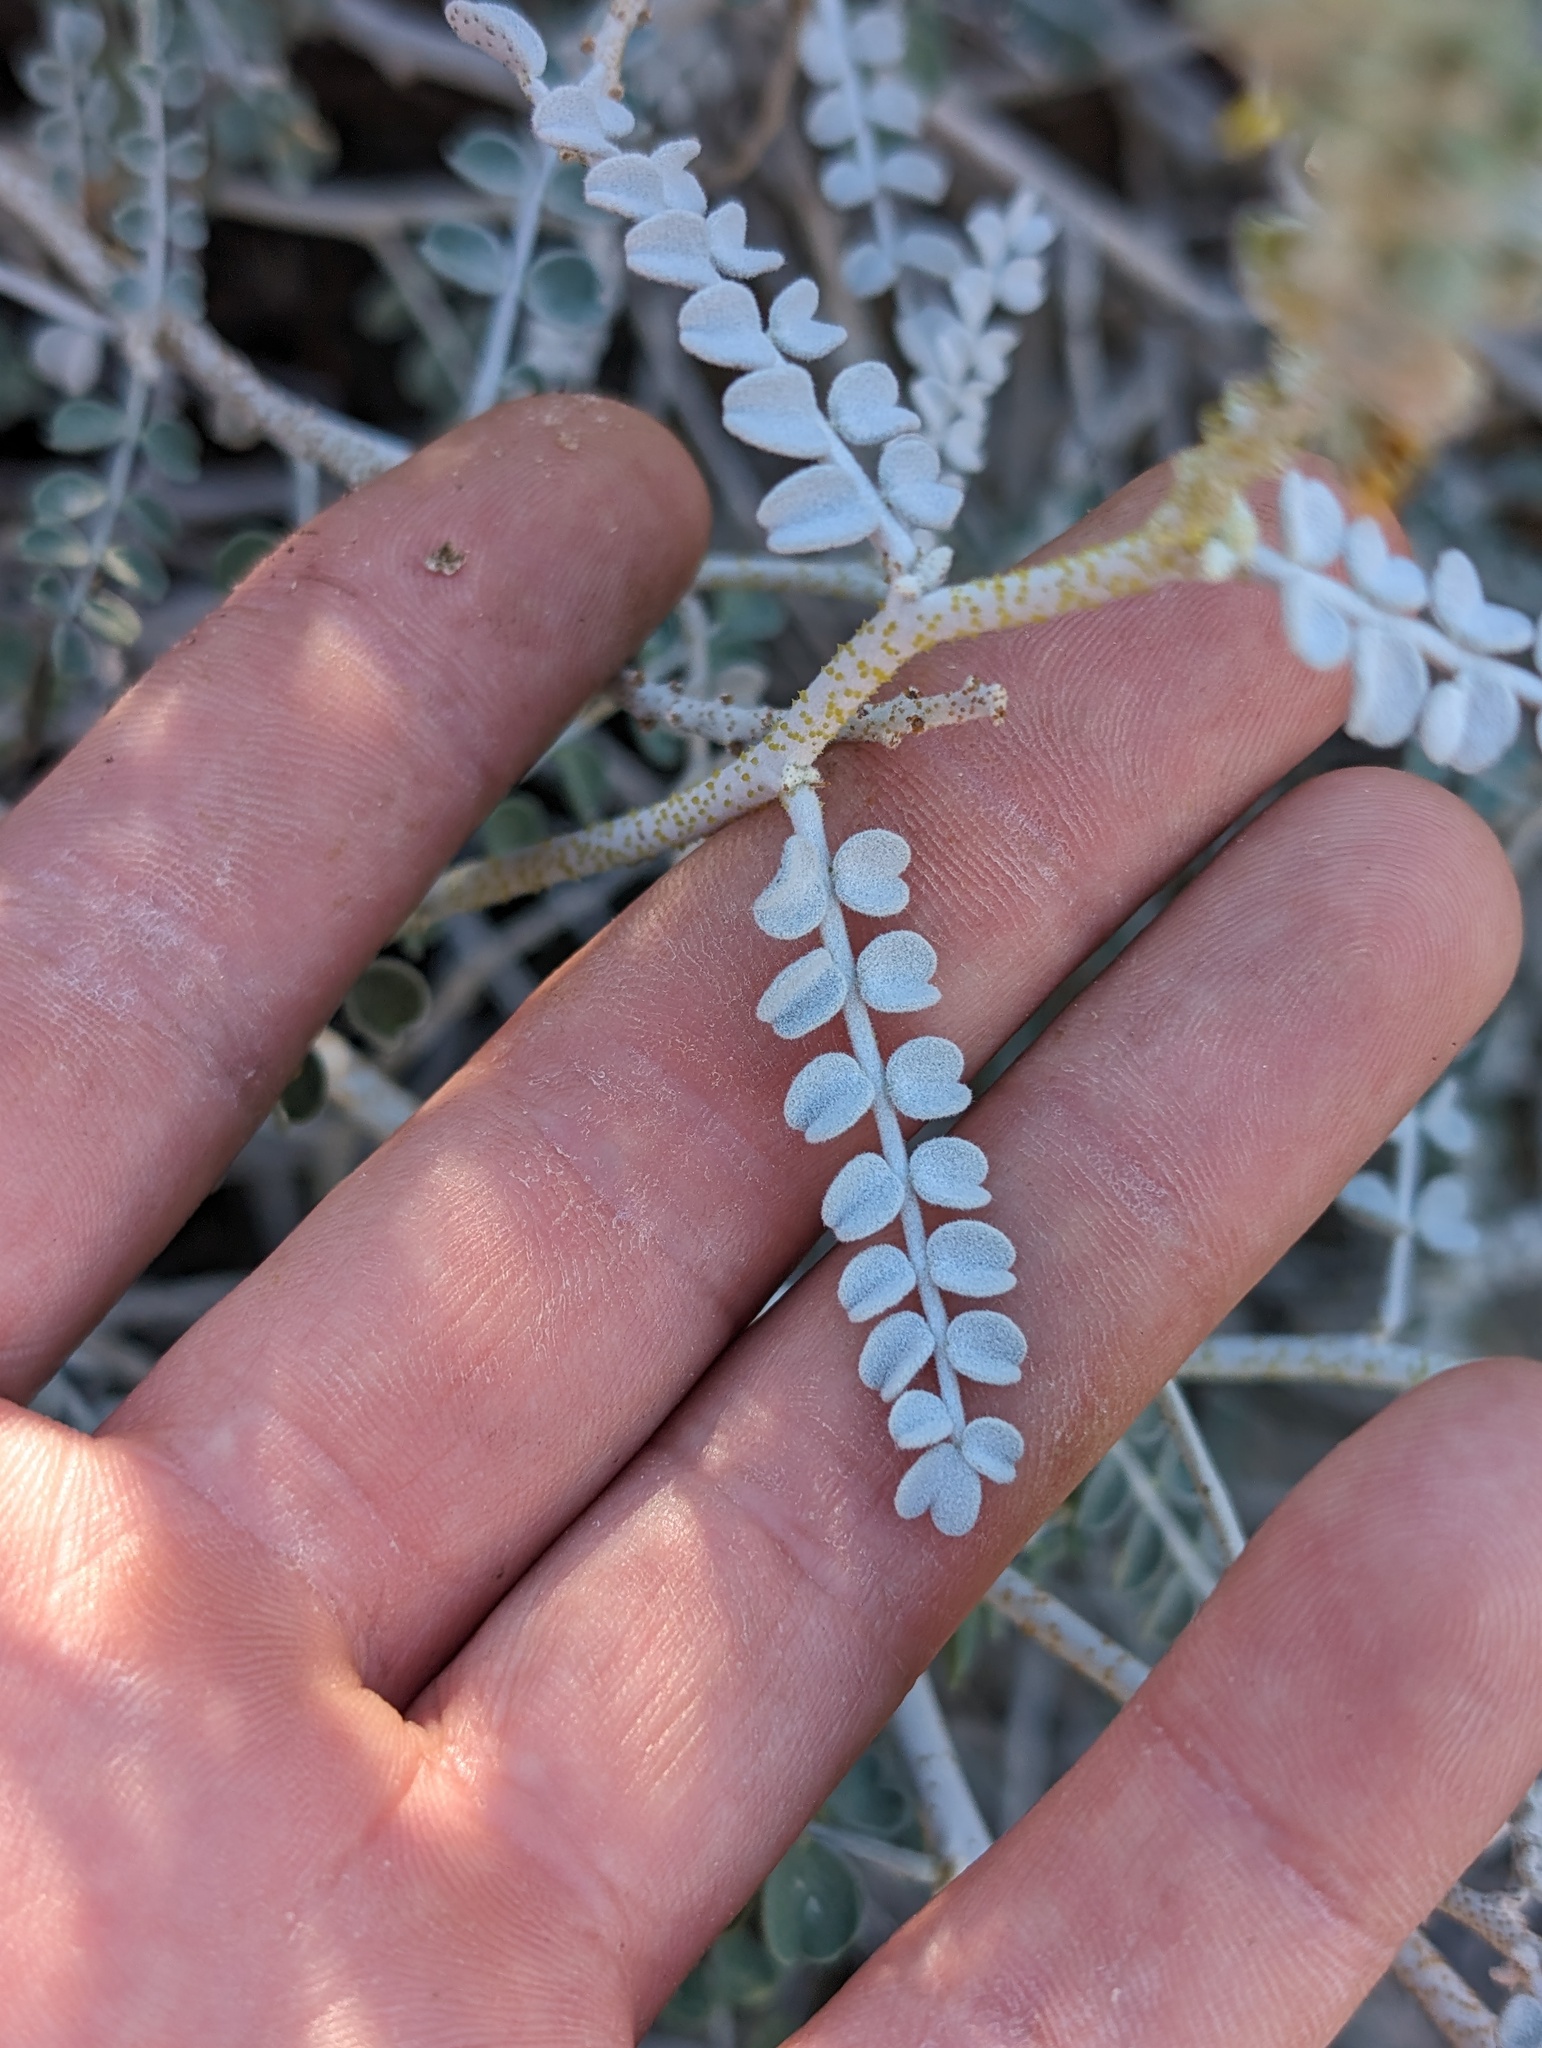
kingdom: Plantae
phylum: Tracheophyta
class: Magnoliopsida
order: Fabales
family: Fabaceae
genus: Errazurizia
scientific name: Errazurizia megacarpa
